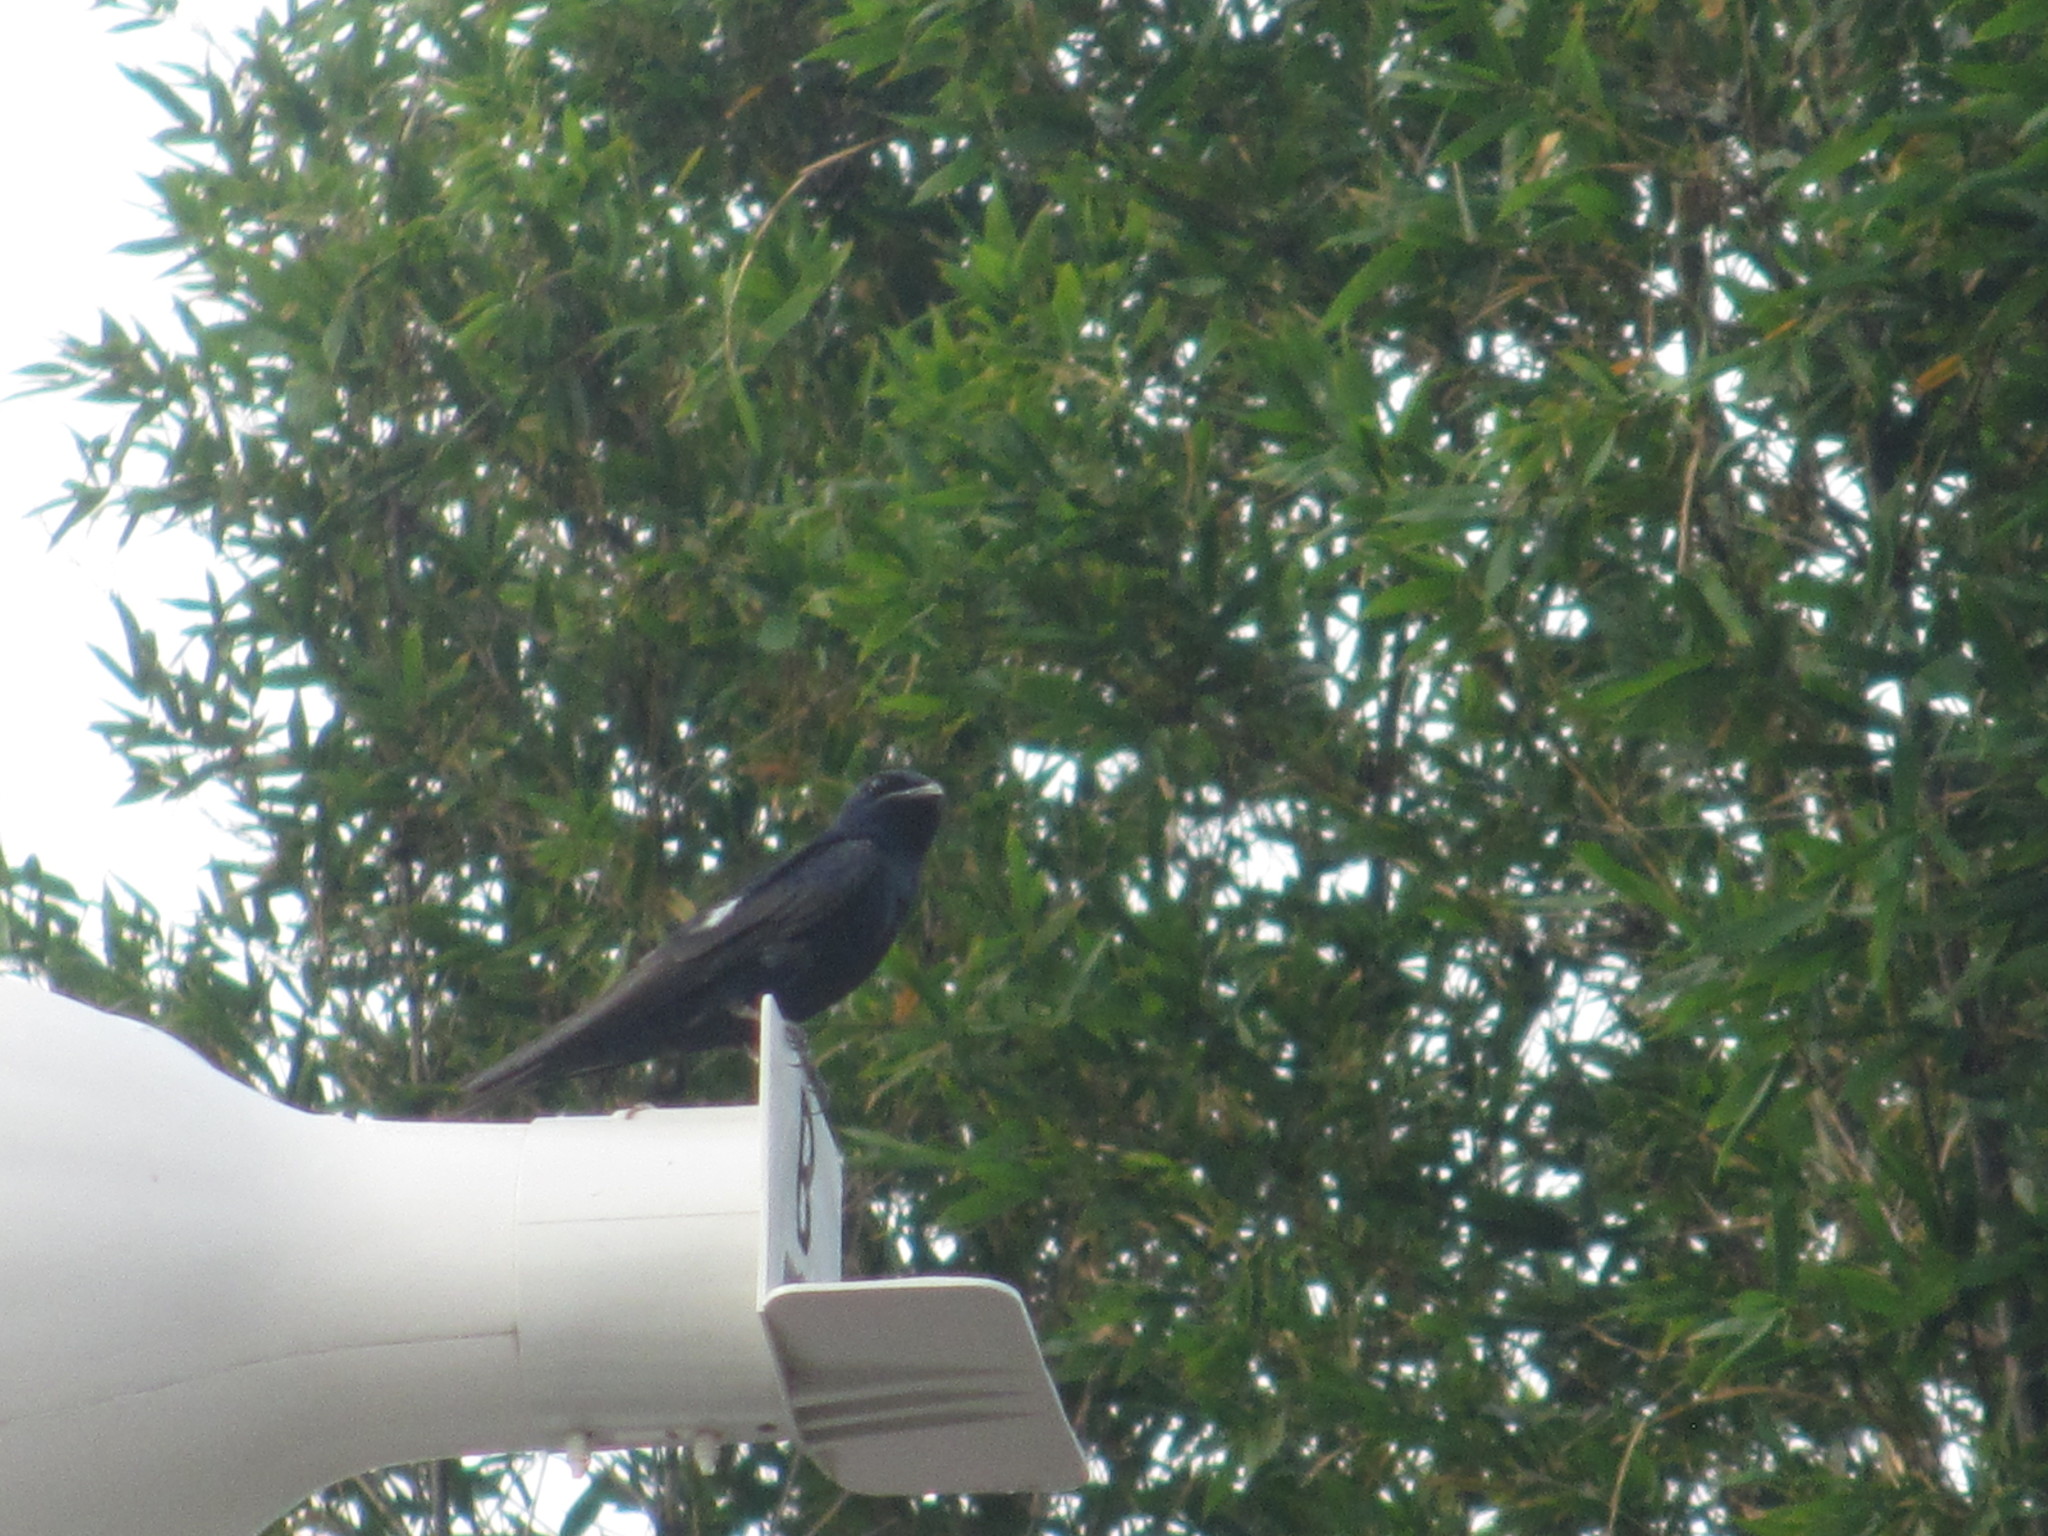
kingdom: Animalia
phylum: Chordata
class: Aves
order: Passeriformes
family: Hirundinidae
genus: Progne
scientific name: Progne subis
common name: Purple martin
